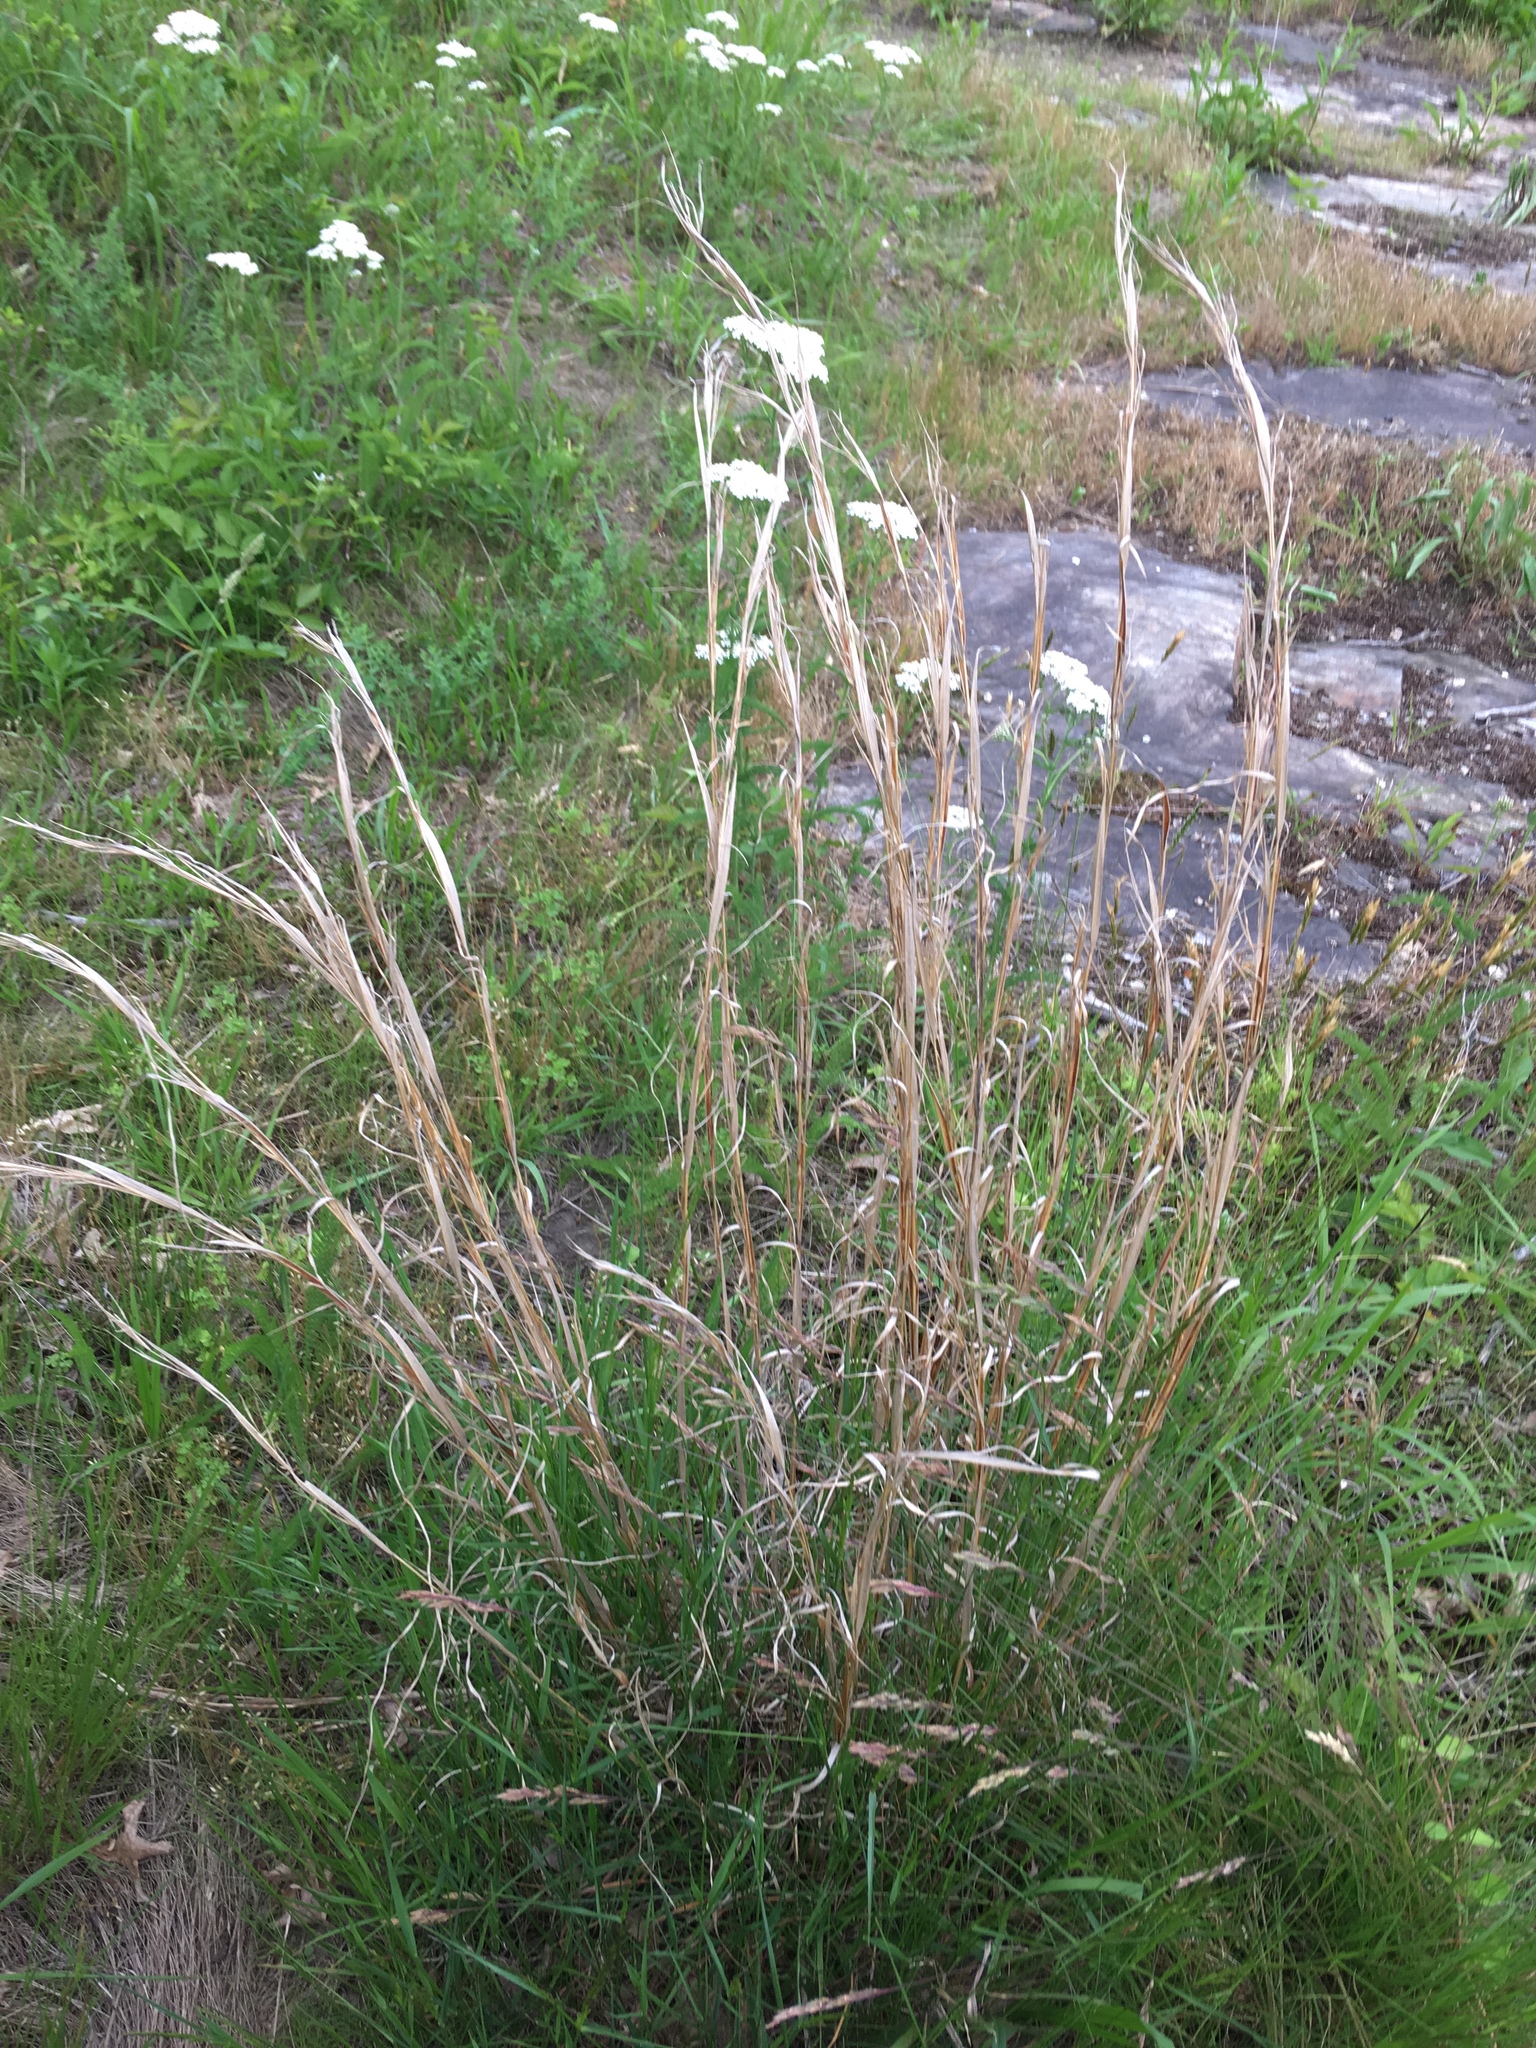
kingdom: Plantae
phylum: Tracheophyta
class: Liliopsida
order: Poales
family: Poaceae
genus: Andropogon
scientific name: Andropogon virginicus
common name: Broomsedge bluestem
